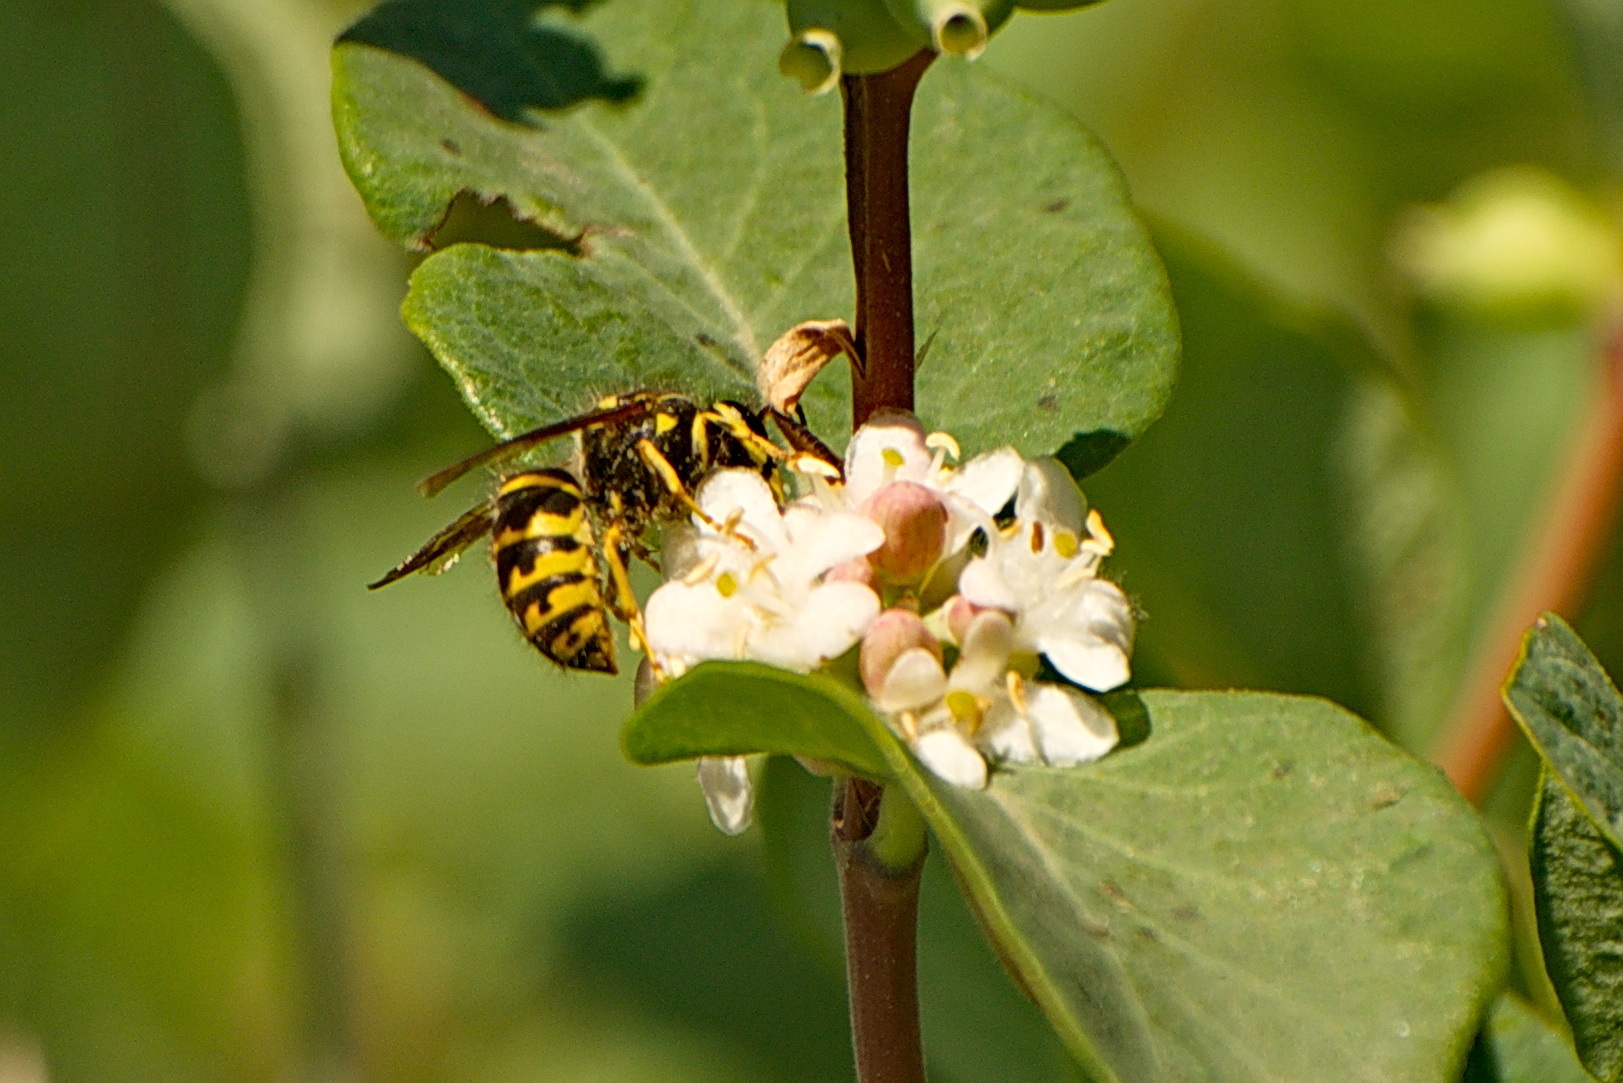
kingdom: Animalia
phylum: Arthropoda
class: Insecta
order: Hymenoptera
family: Vespidae
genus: Dolichovespula
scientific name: Dolichovespula arenaria
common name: Aerial yellowjacket
